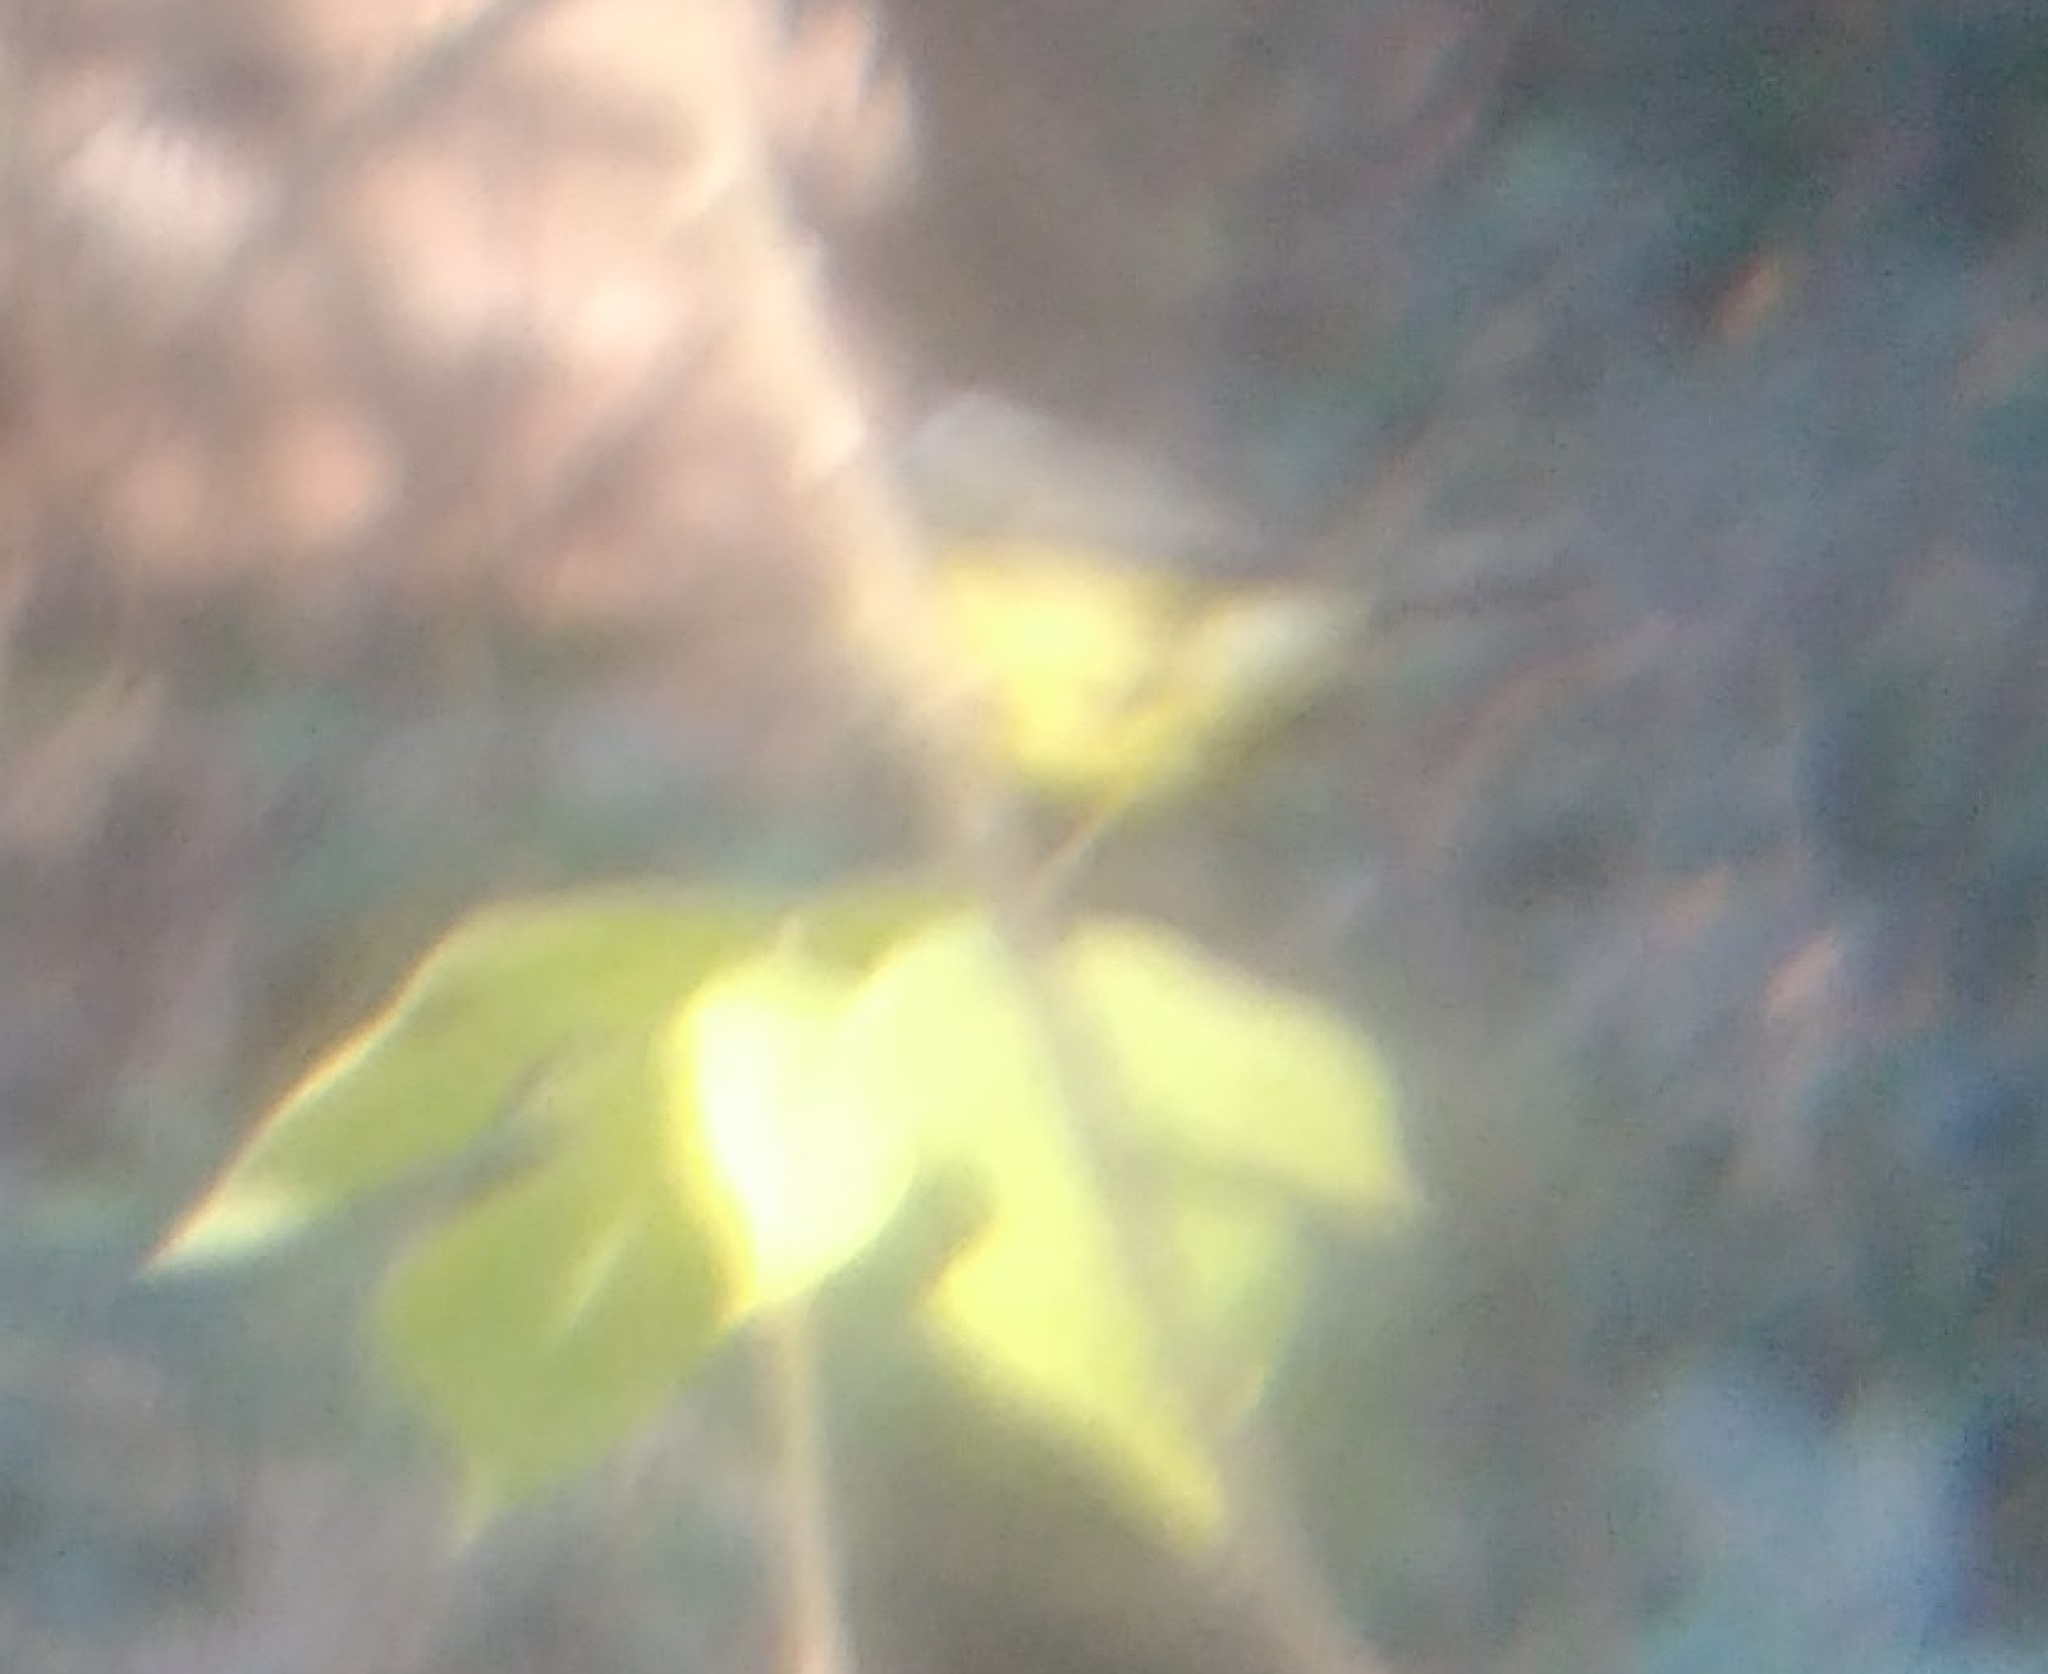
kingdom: Animalia
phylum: Chordata
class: Aves
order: Passeriformes
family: Parulidae
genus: Basileuterus
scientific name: Basileuterus culicivorus
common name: Golden-crowned warbler
